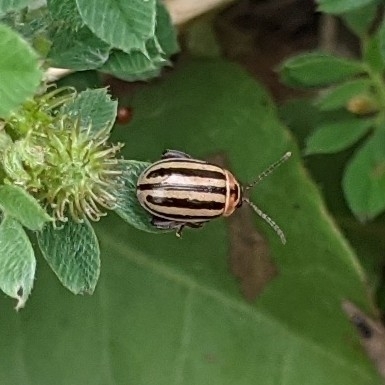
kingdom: Animalia
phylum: Arthropoda
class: Insecta
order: Coleoptera
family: Chrysomelidae
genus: Kuschelina
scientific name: Kuschelina petaurista
